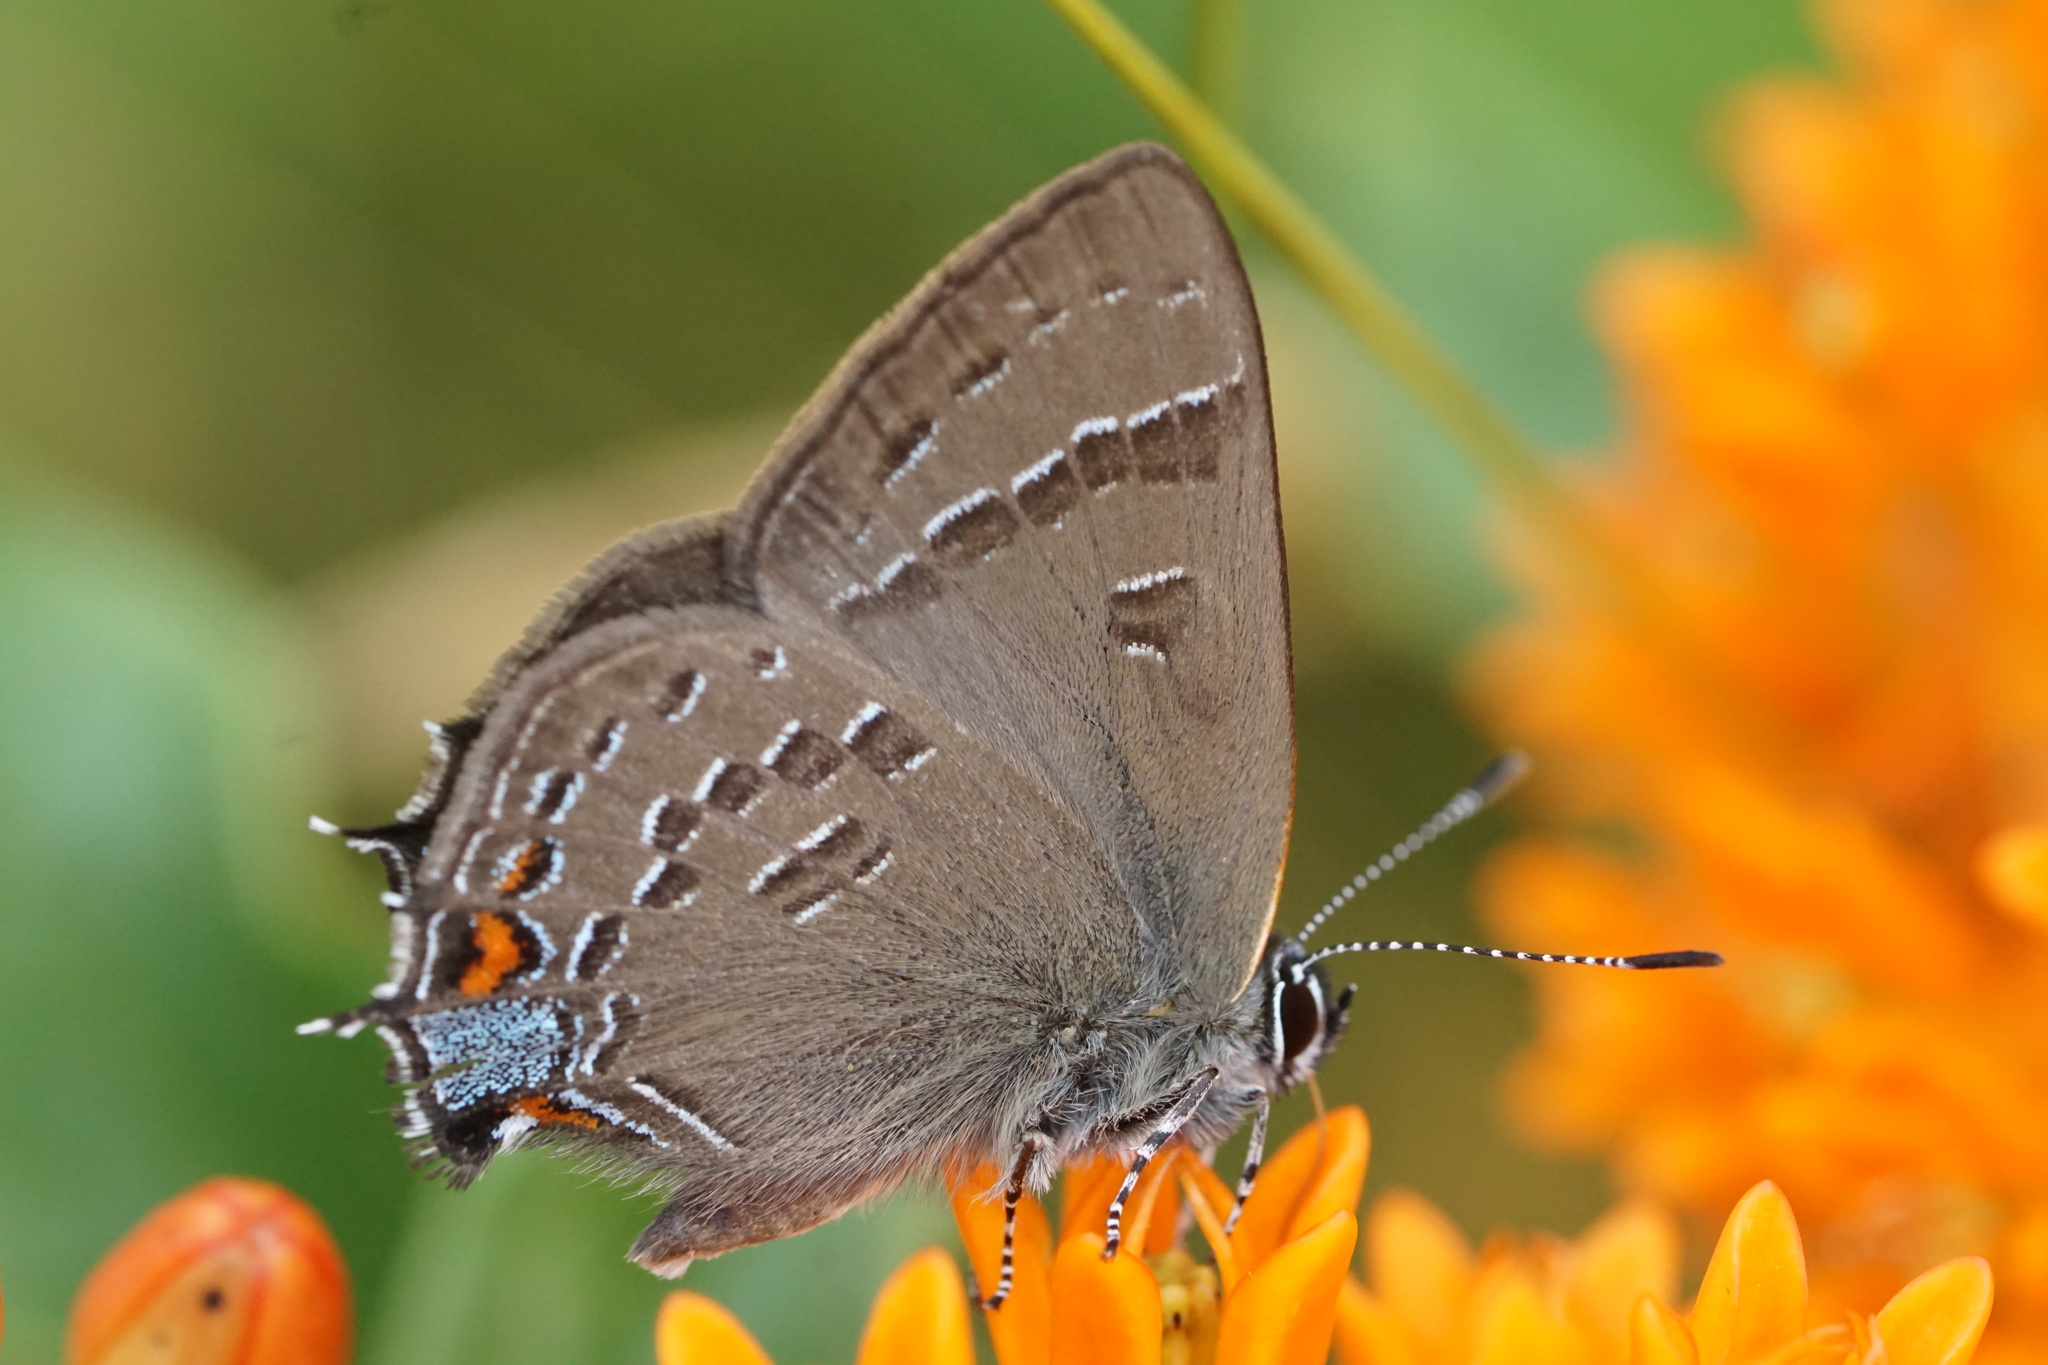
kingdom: Animalia
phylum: Arthropoda
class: Insecta
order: Lepidoptera
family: Lycaenidae
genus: Satyrium
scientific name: Satyrium calanus
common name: Banded hairstreak
